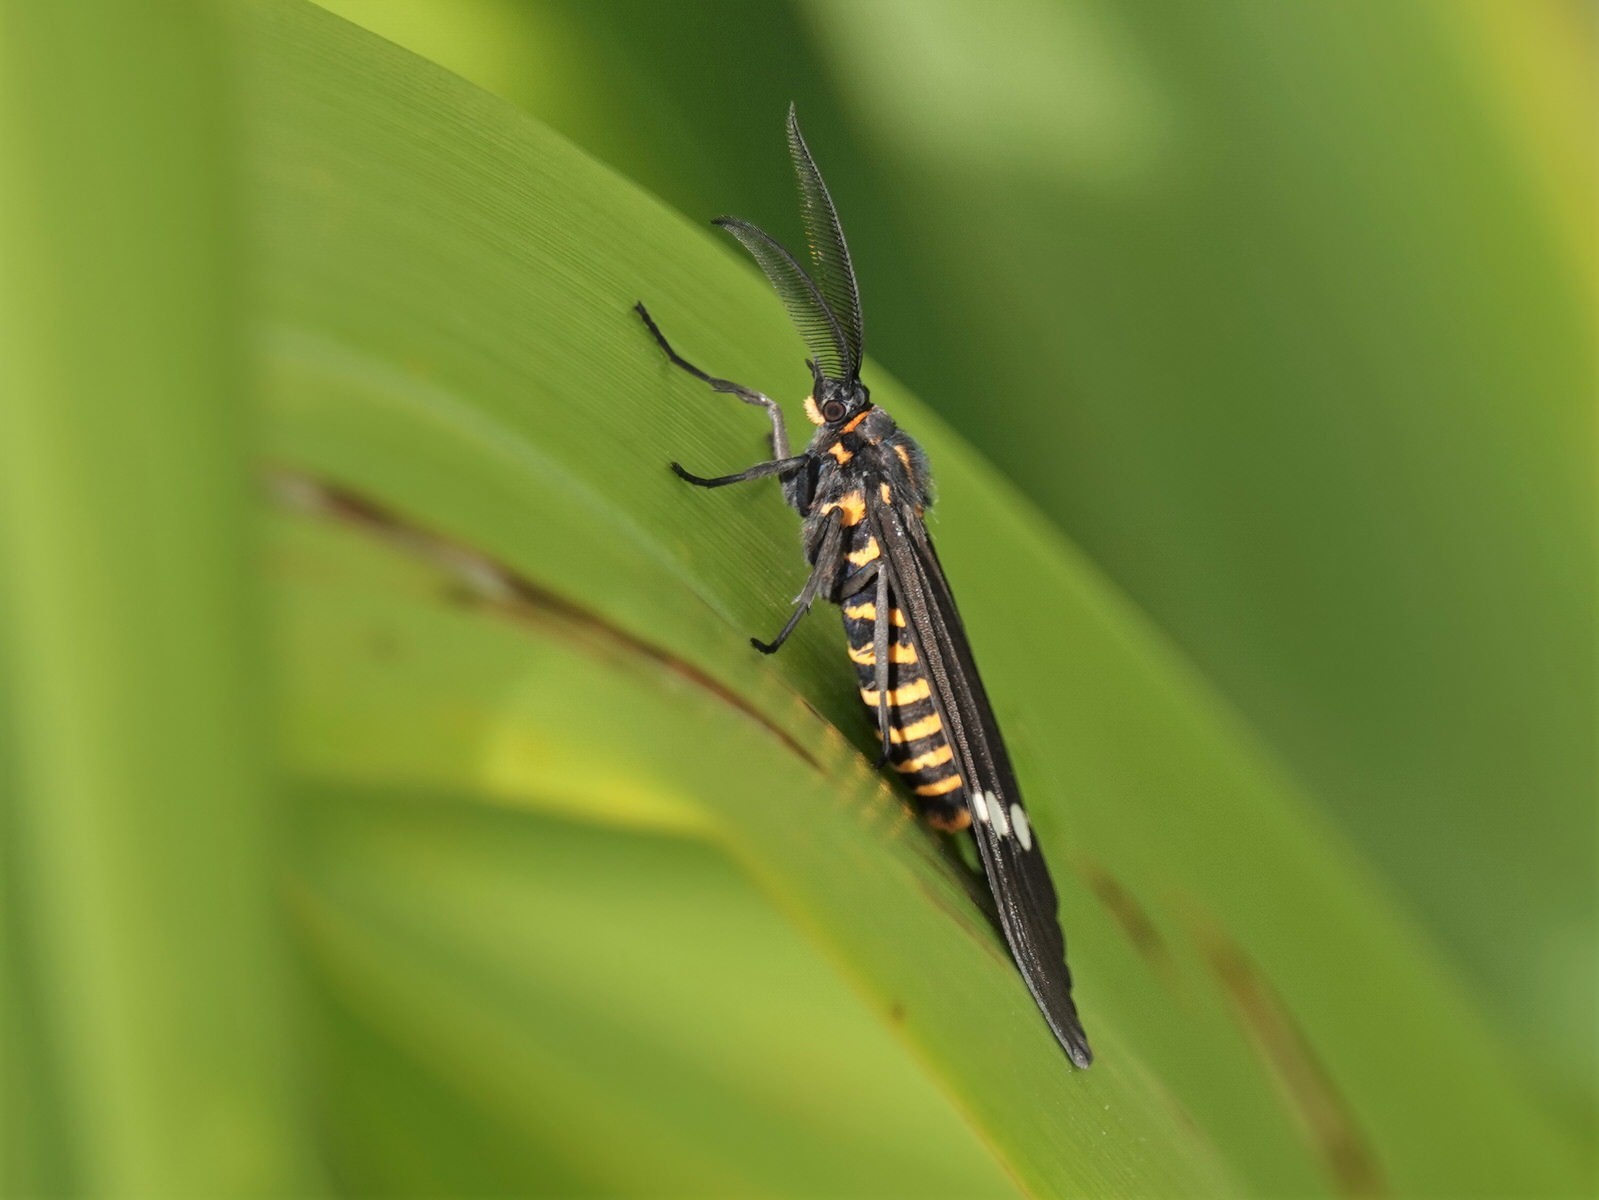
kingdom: Animalia
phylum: Arthropoda
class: Insecta
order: Lepidoptera
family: Erebidae
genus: Nyctemera
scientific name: Nyctemera annulatum
